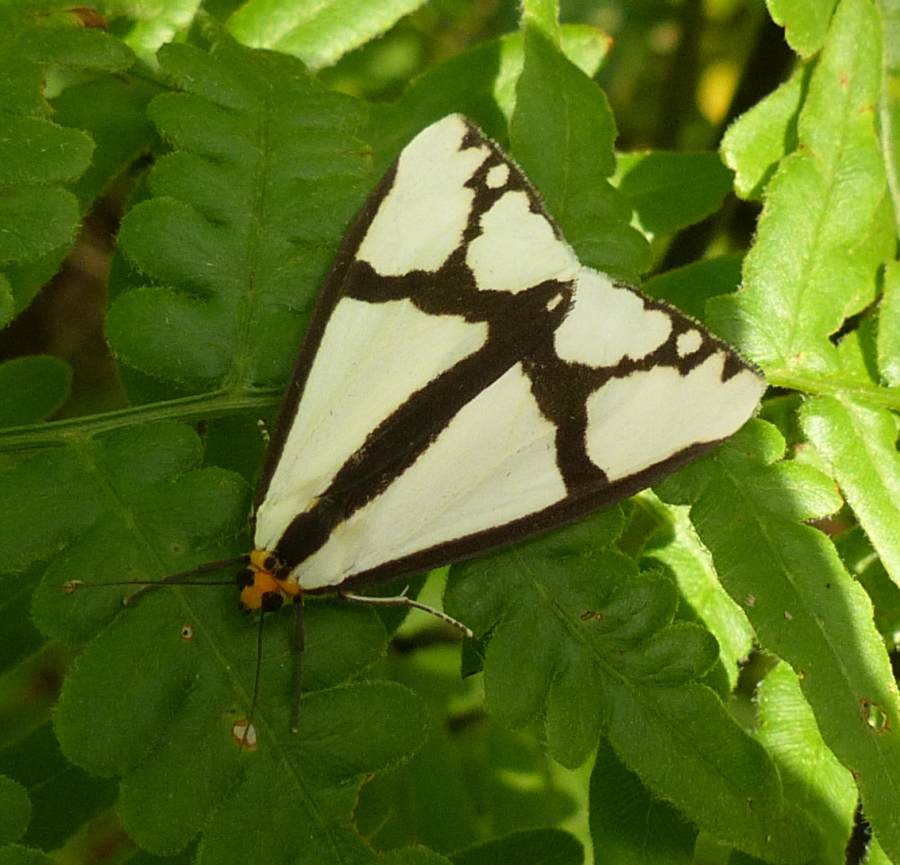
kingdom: Animalia
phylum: Arthropoda
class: Insecta
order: Lepidoptera
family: Erebidae
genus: Haploa
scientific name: Haploa contigua
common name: Neighbor moth
